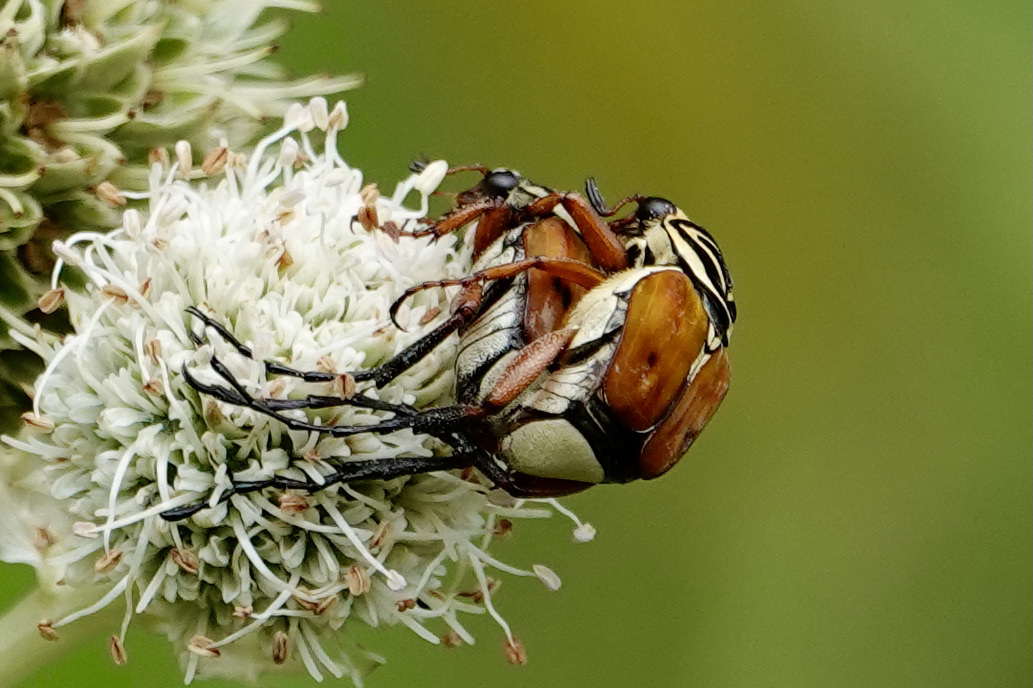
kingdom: Animalia
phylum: Arthropoda
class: Insecta
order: Coleoptera
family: Scarabaeidae
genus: Trigonopeltastes
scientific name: Trigonopeltastes delta
